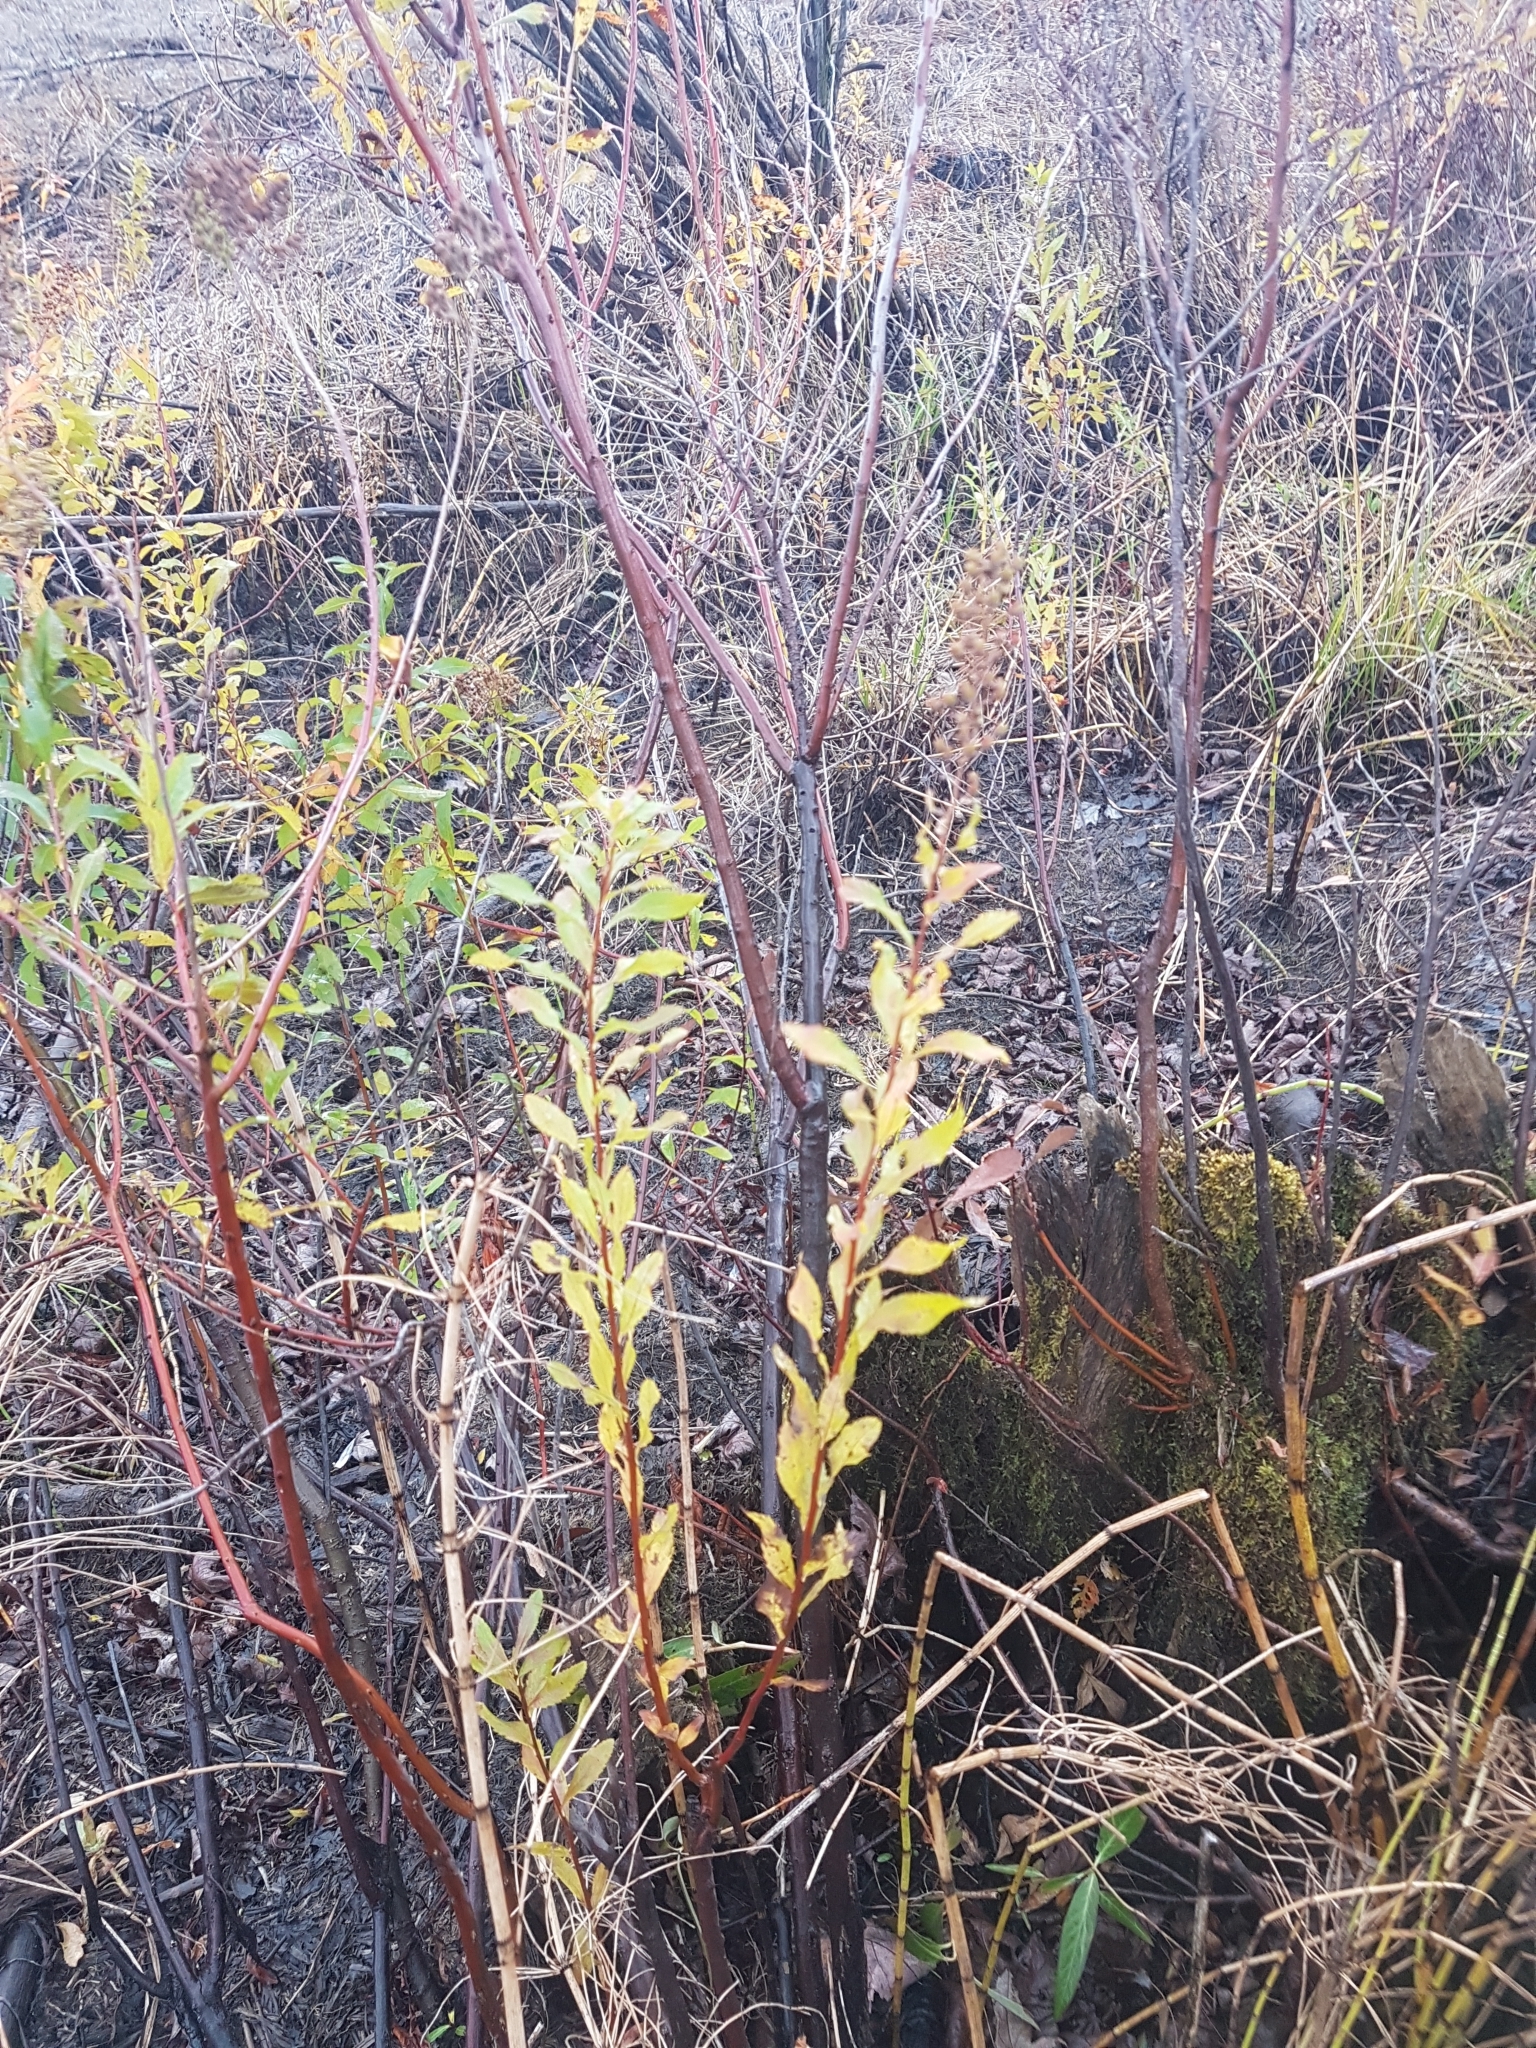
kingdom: Plantae
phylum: Tracheophyta
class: Magnoliopsida
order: Rosales
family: Rosaceae
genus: Spiraea
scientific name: Spiraea alba
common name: Pale bridewort
